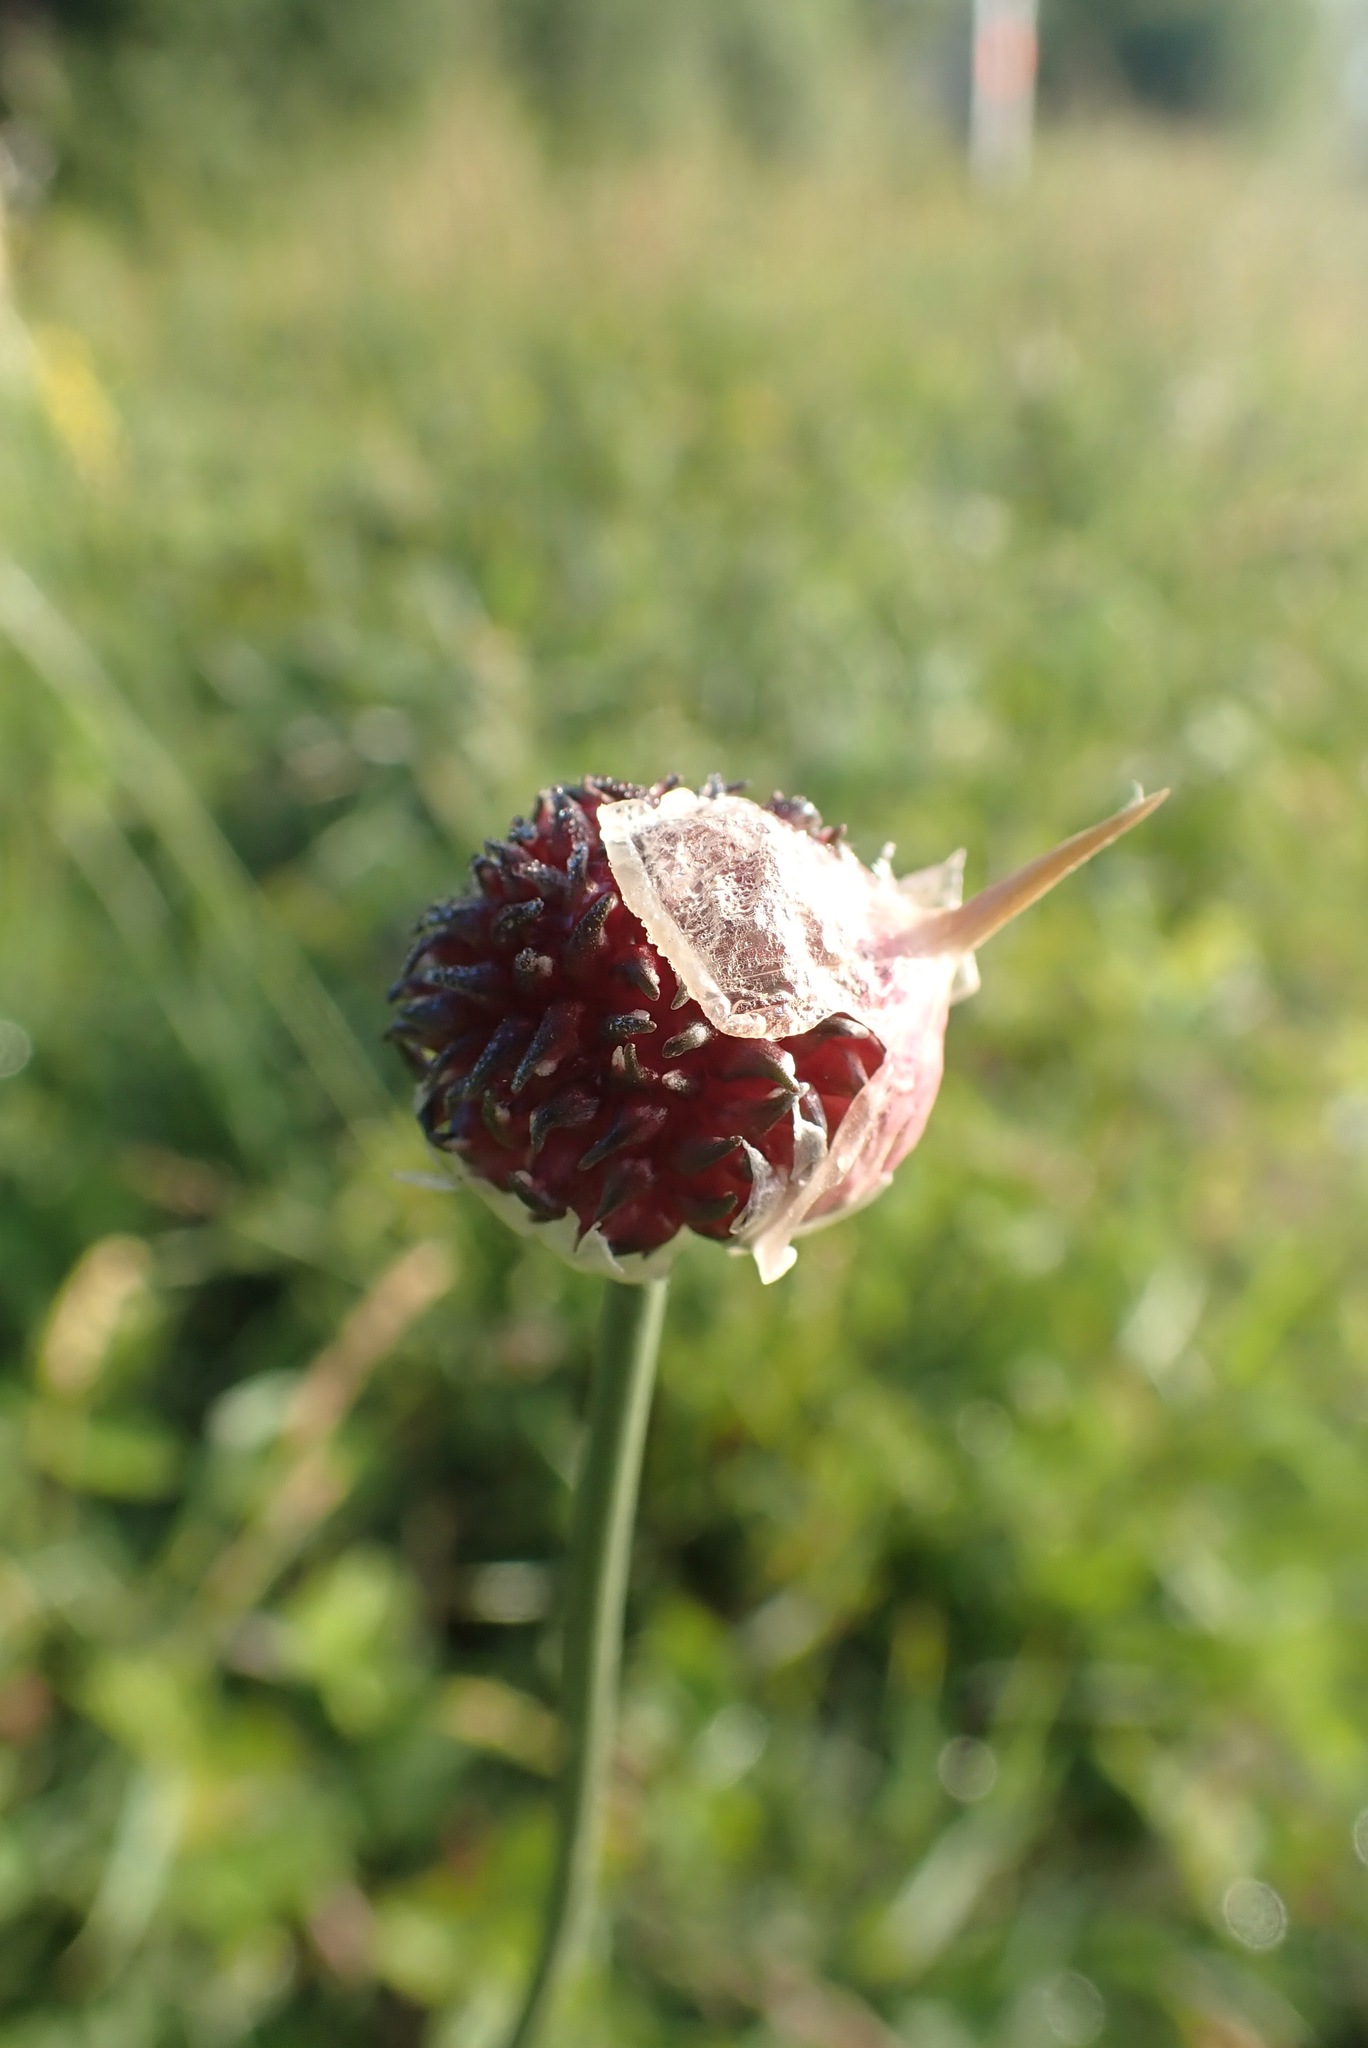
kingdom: Plantae
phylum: Tracheophyta
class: Liliopsida
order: Asparagales
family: Amaryllidaceae
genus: Allium
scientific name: Allium vineale
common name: Crow garlic
